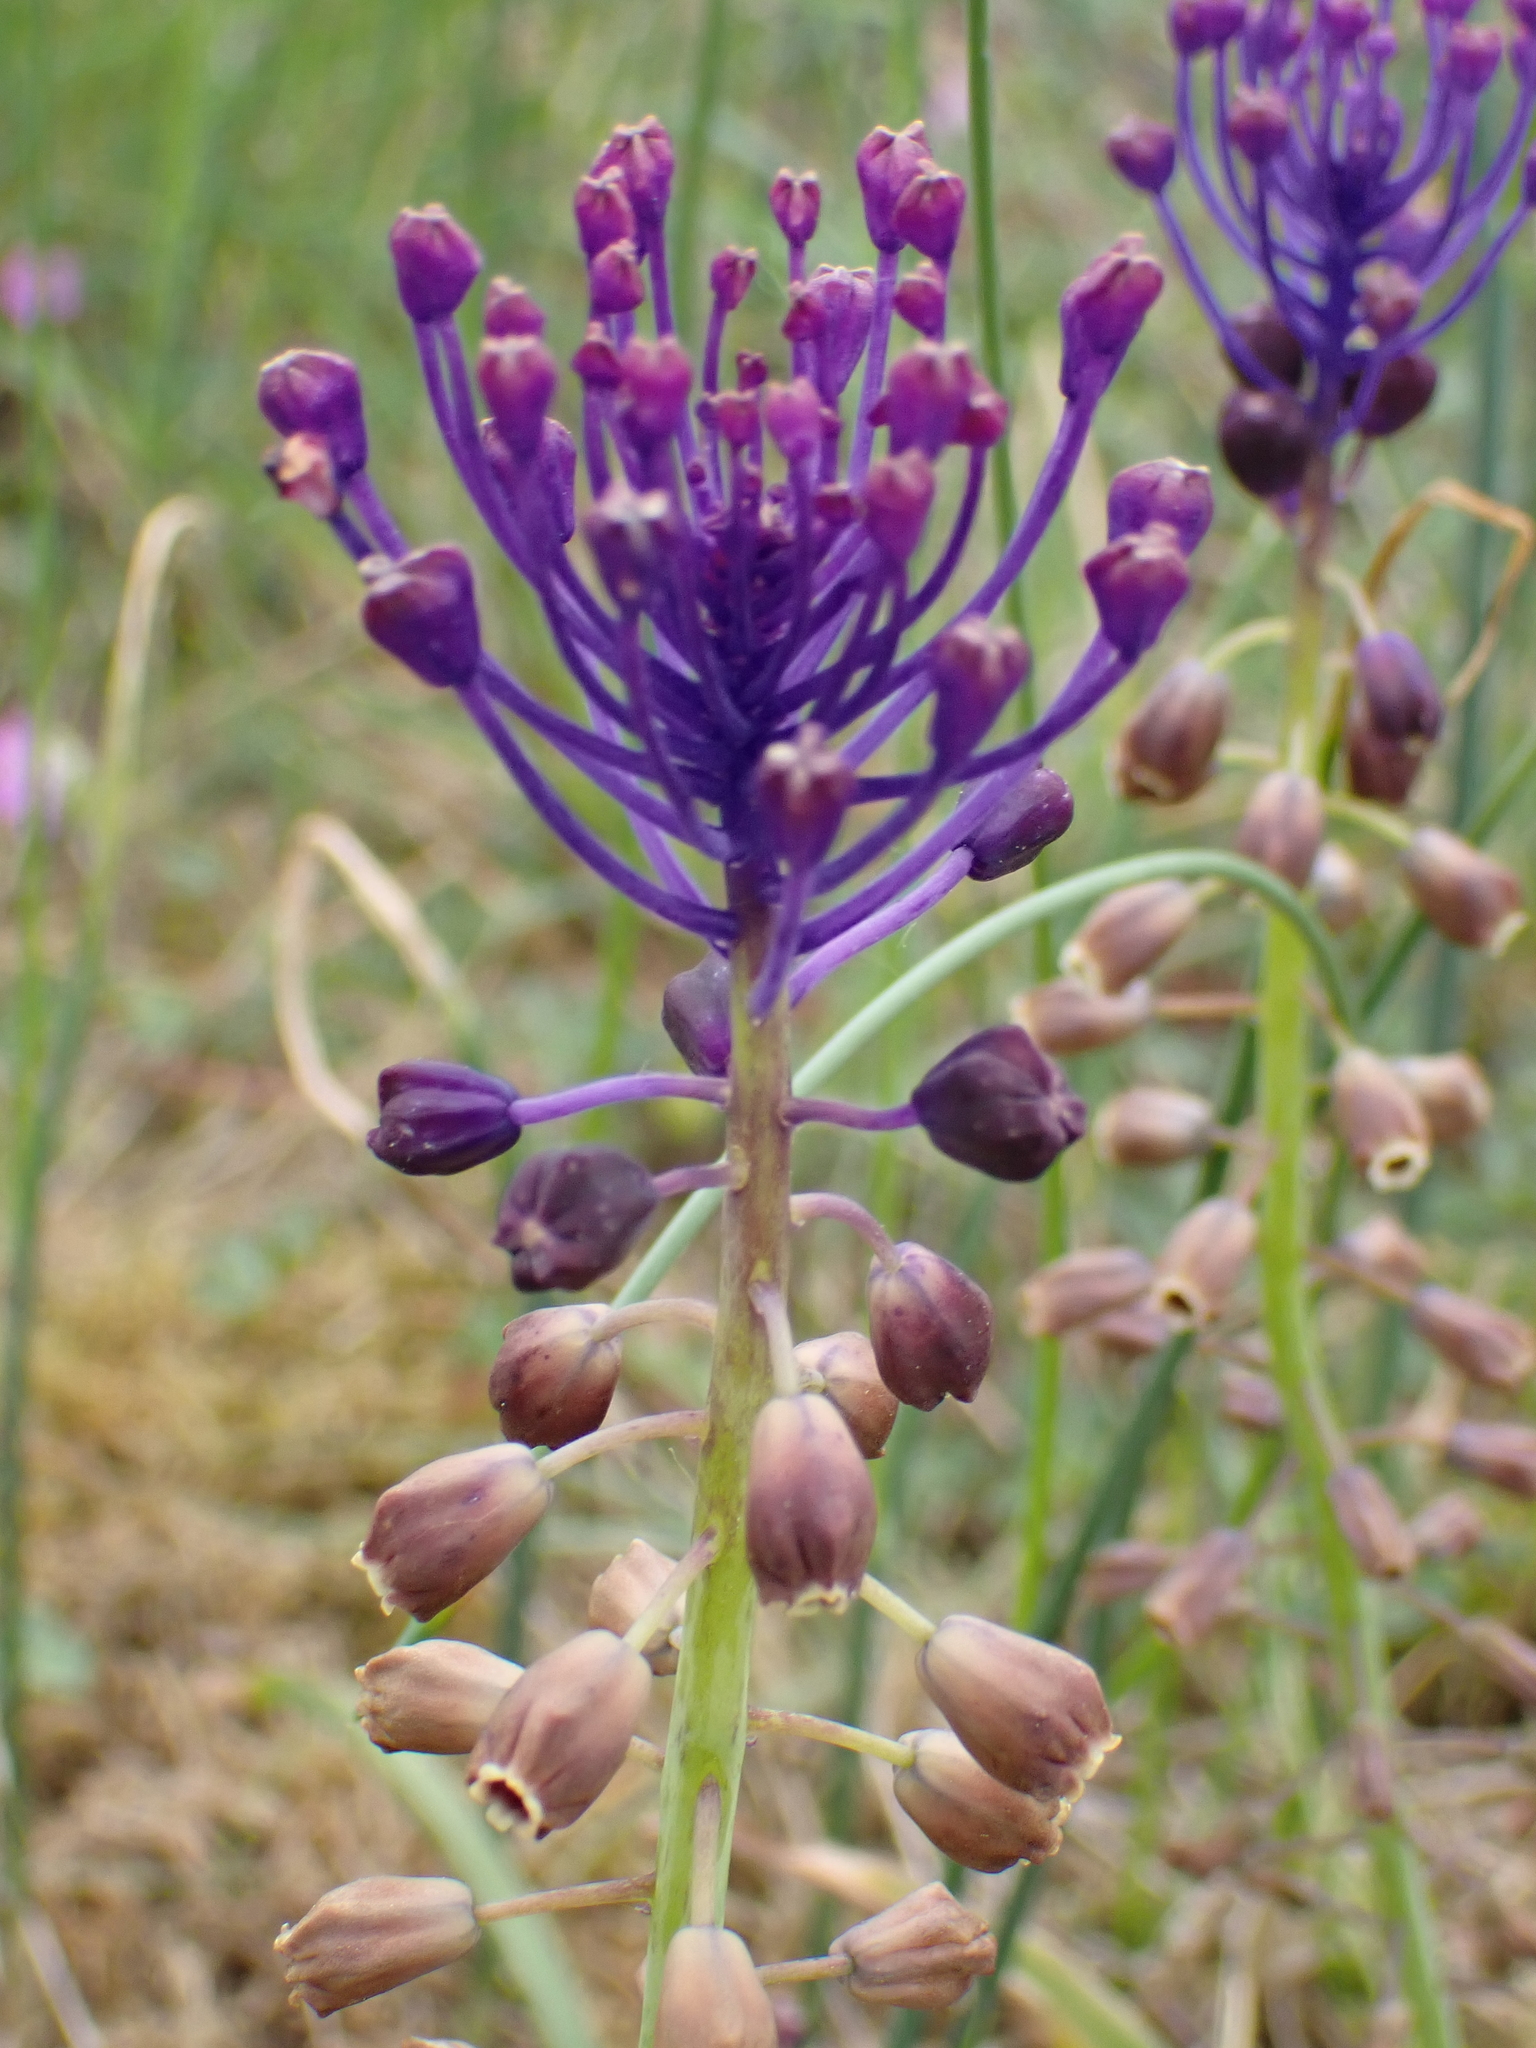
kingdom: Plantae
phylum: Tracheophyta
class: Liliopsida
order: Asparagales
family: Asparagaceae
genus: Muscari
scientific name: Muscari comosum
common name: Tassel hyacinth
